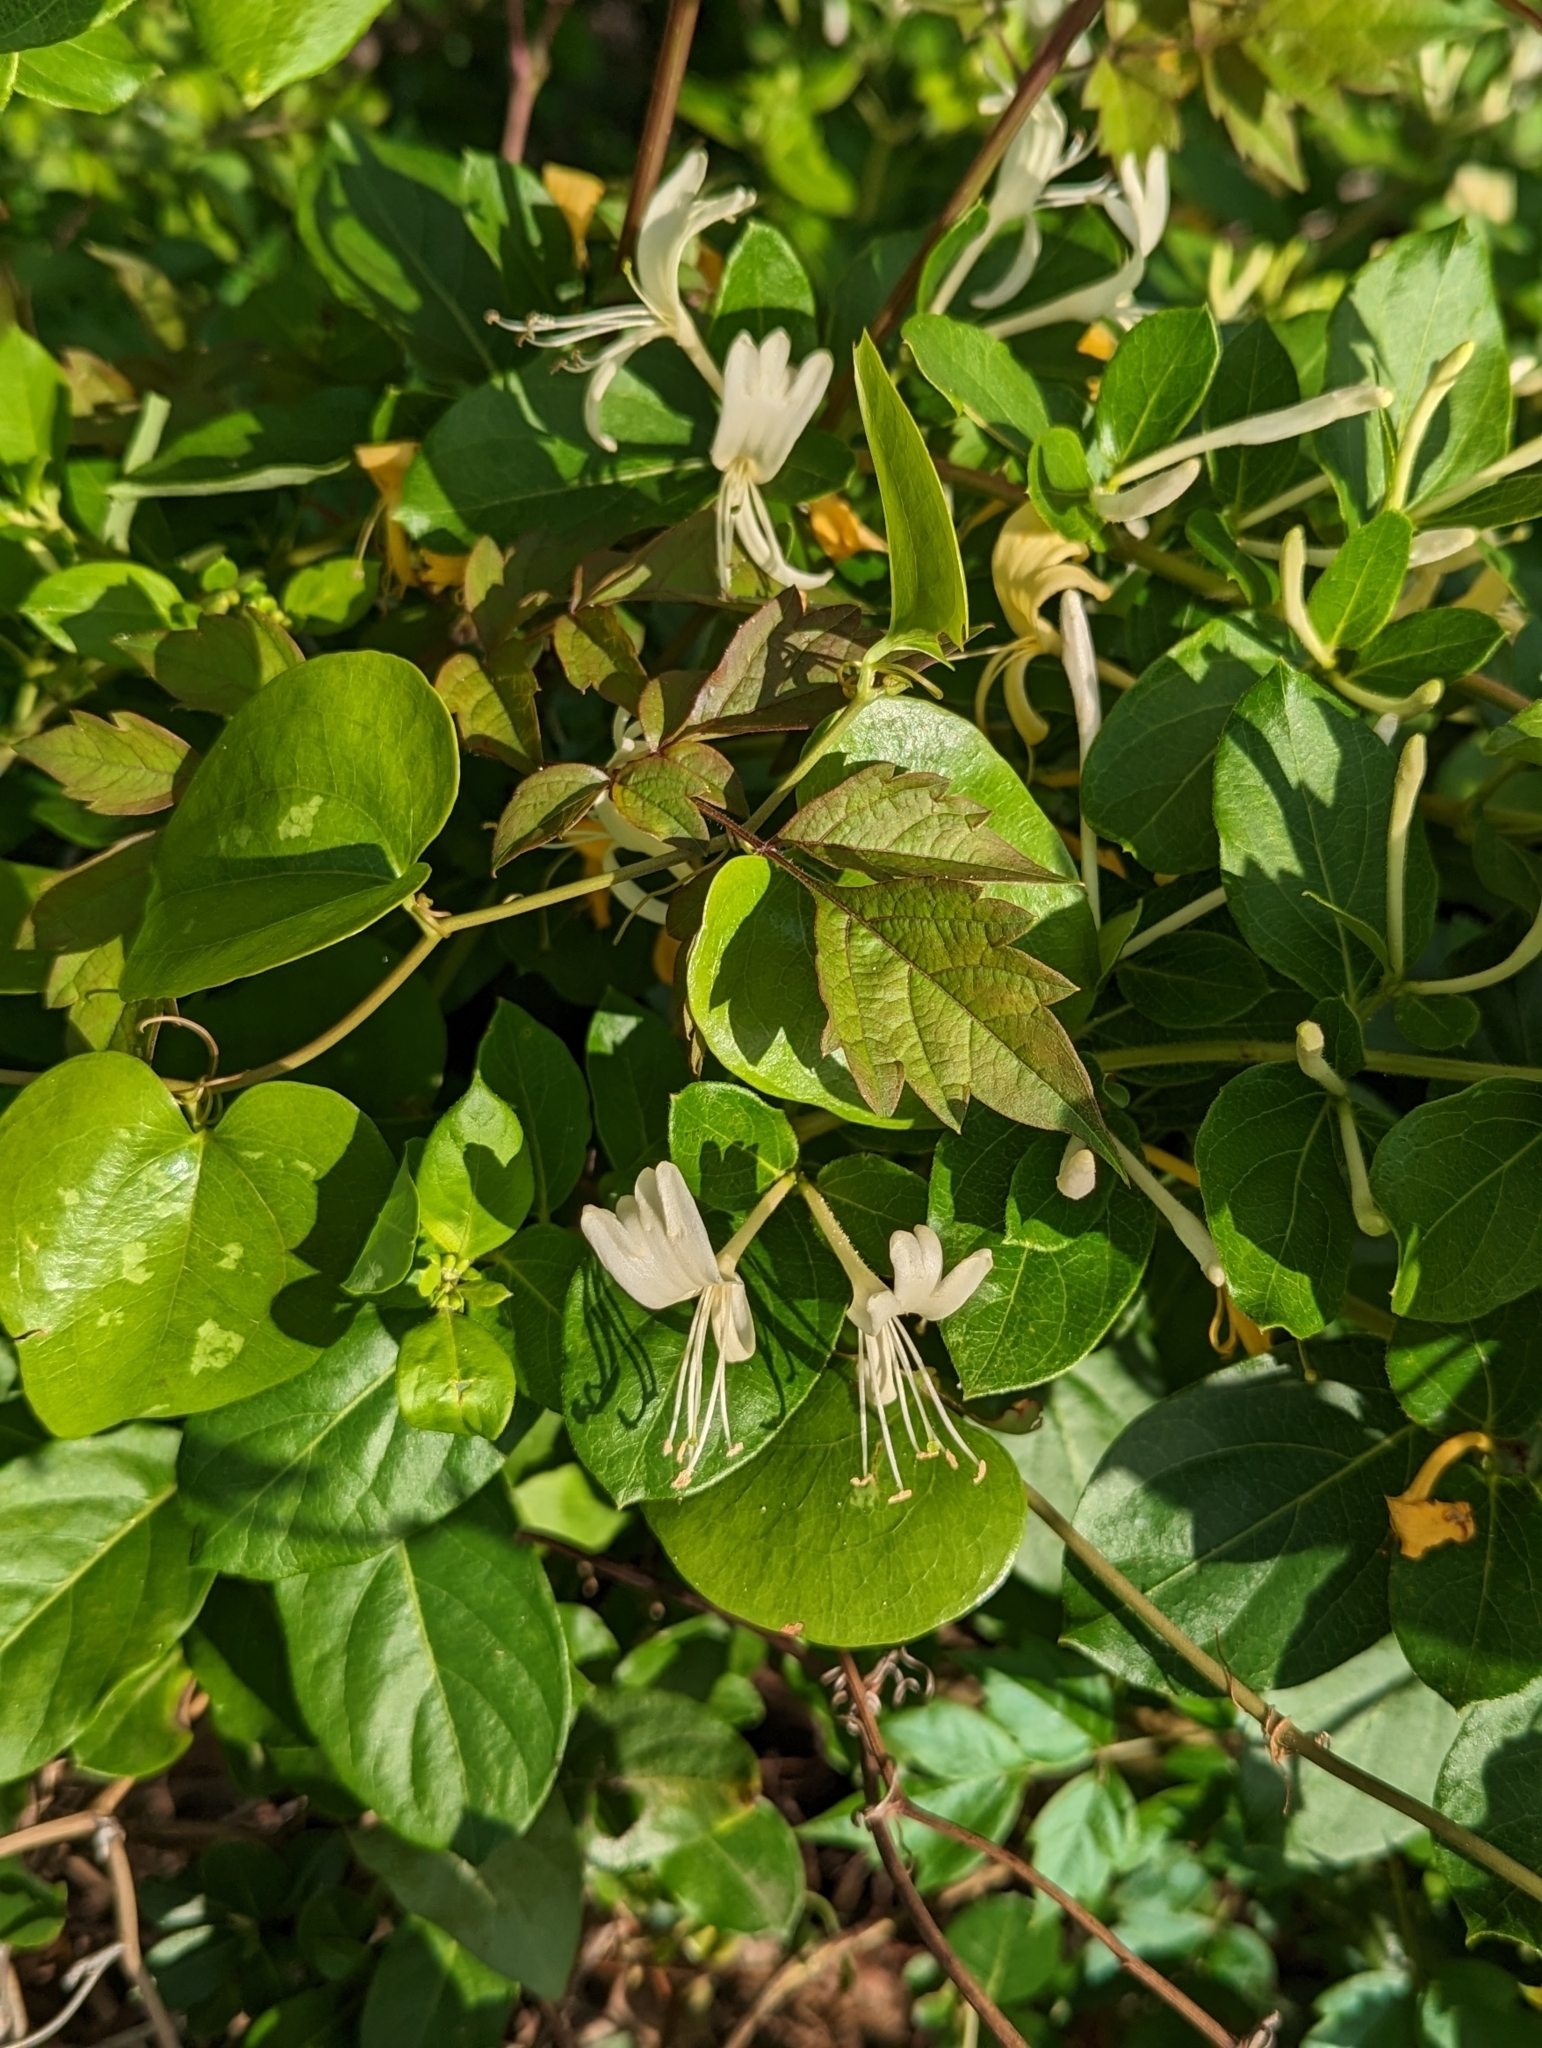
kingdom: Plantae
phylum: Tracheophyta
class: Magnoliopsida
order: Dipsacales
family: Caprifoliaceae
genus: Lonicera
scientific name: Lonicera japonica
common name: Japanese honeysuckle
